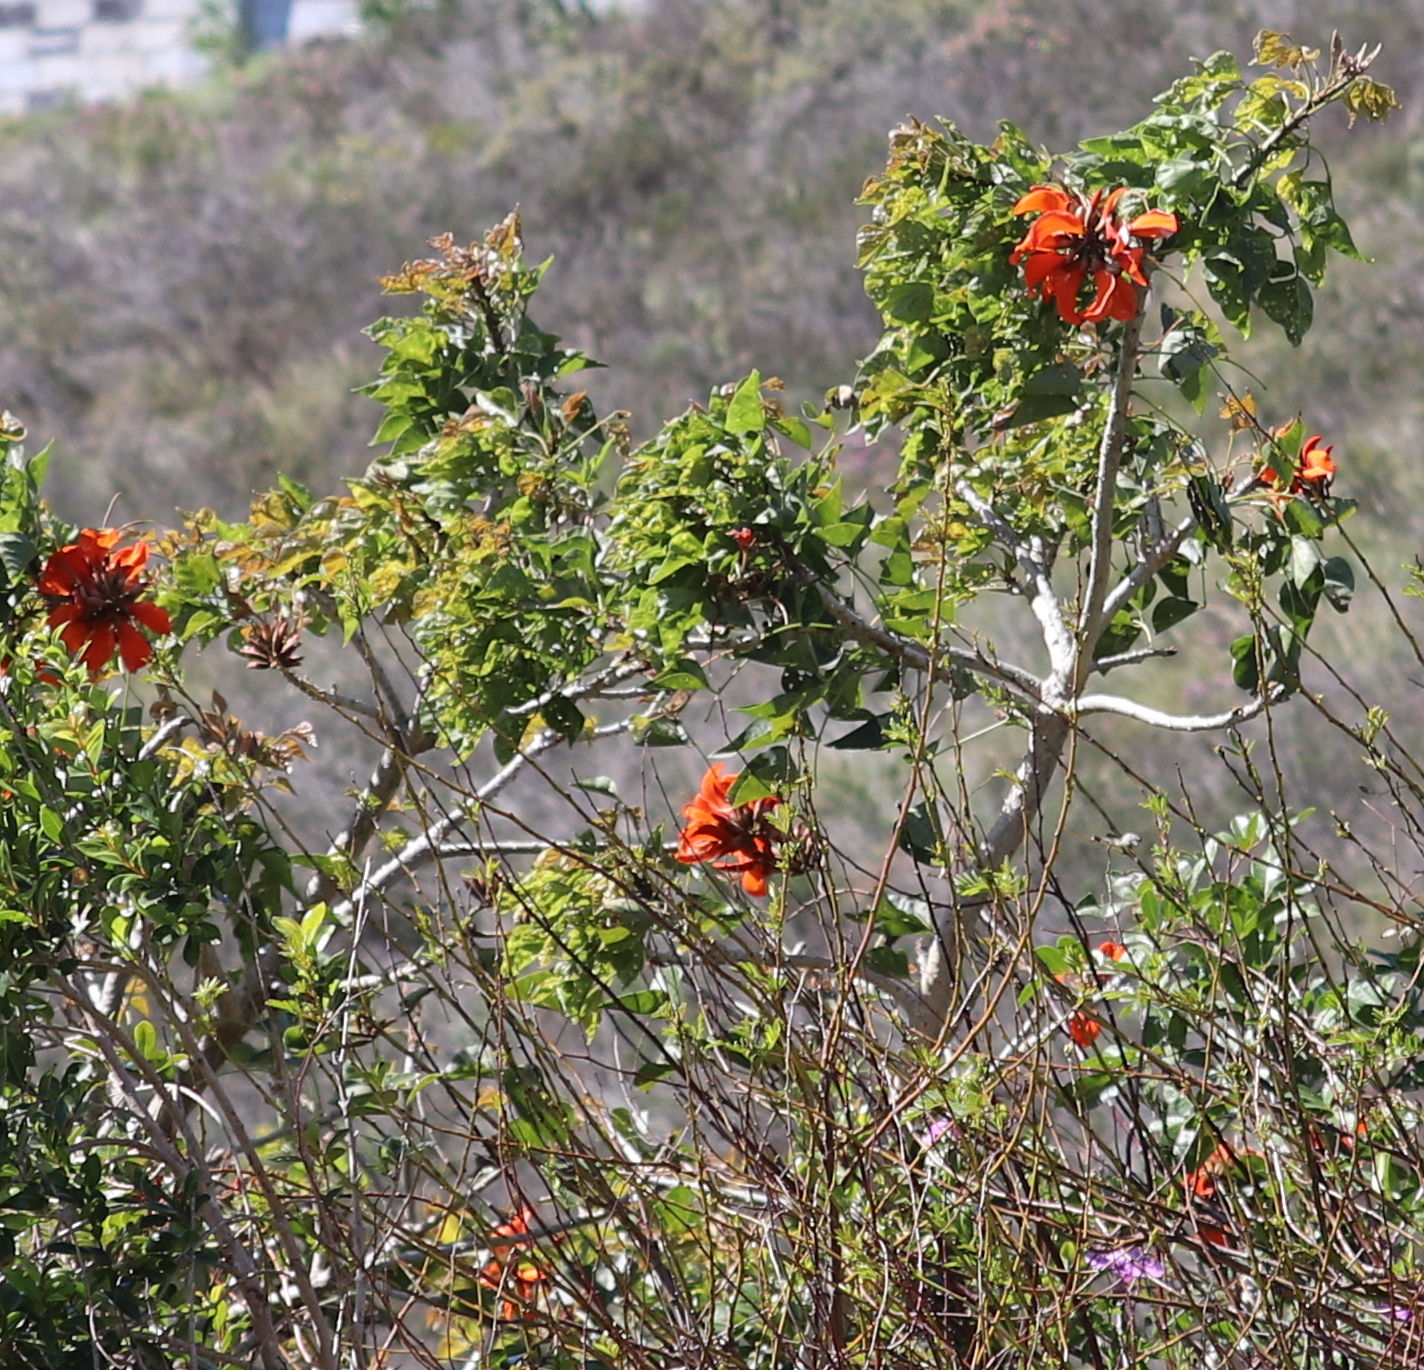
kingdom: Plantae
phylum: Tracheophyta
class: Magnoliopsida
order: Fabales
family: Fabaceae
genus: Erythrina
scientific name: Erythrina caffra
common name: Coast coral tree
